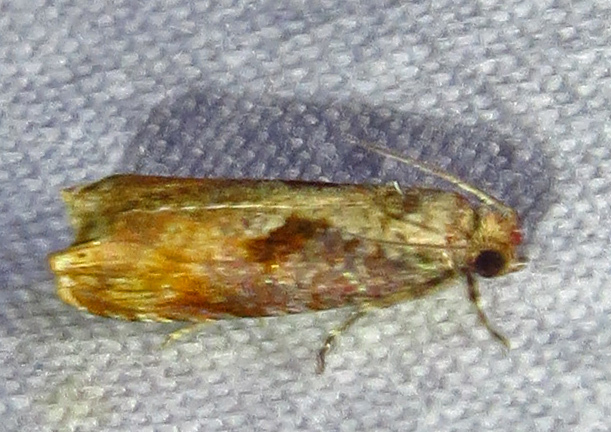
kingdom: Animalia
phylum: Arthropoda
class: Insecta
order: Lepidoptera
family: Tortricidae
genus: Episimus
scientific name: Episimus tyrius
